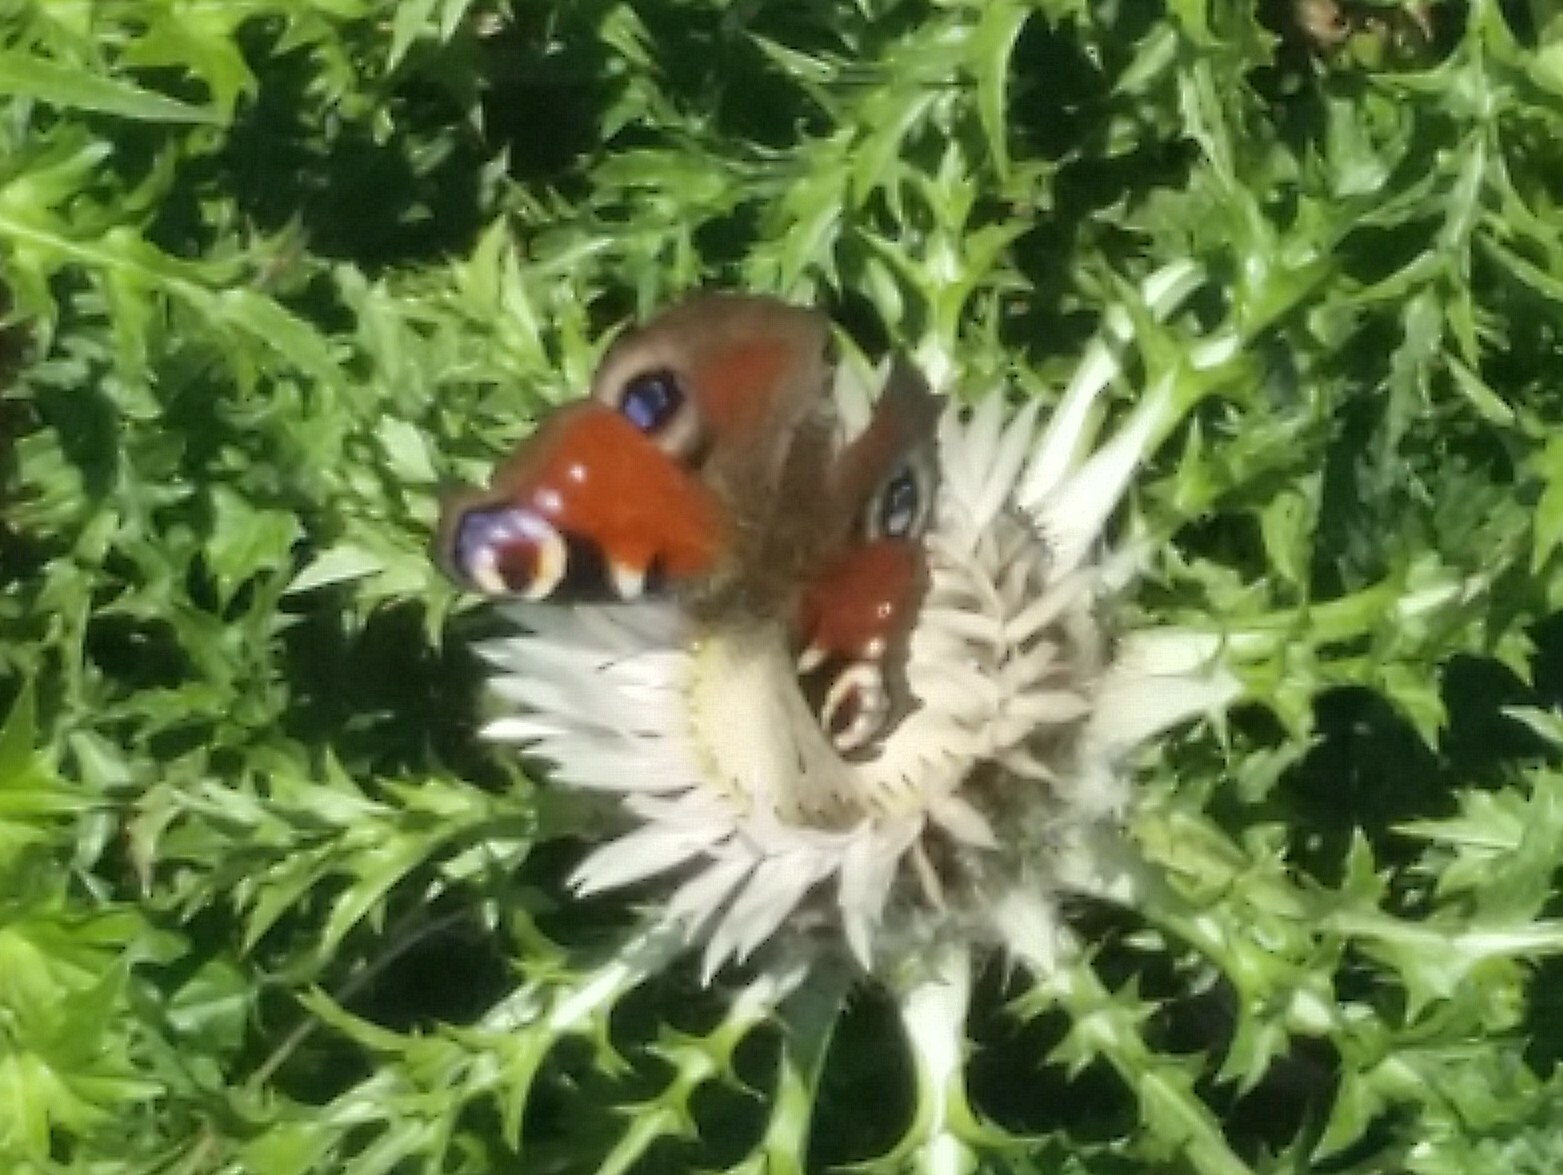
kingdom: Animalia
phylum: Arthropoda
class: Insecta
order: Lepidoptera
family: Nymphalidae
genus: Aglais
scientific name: Aglais io
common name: Peacock
